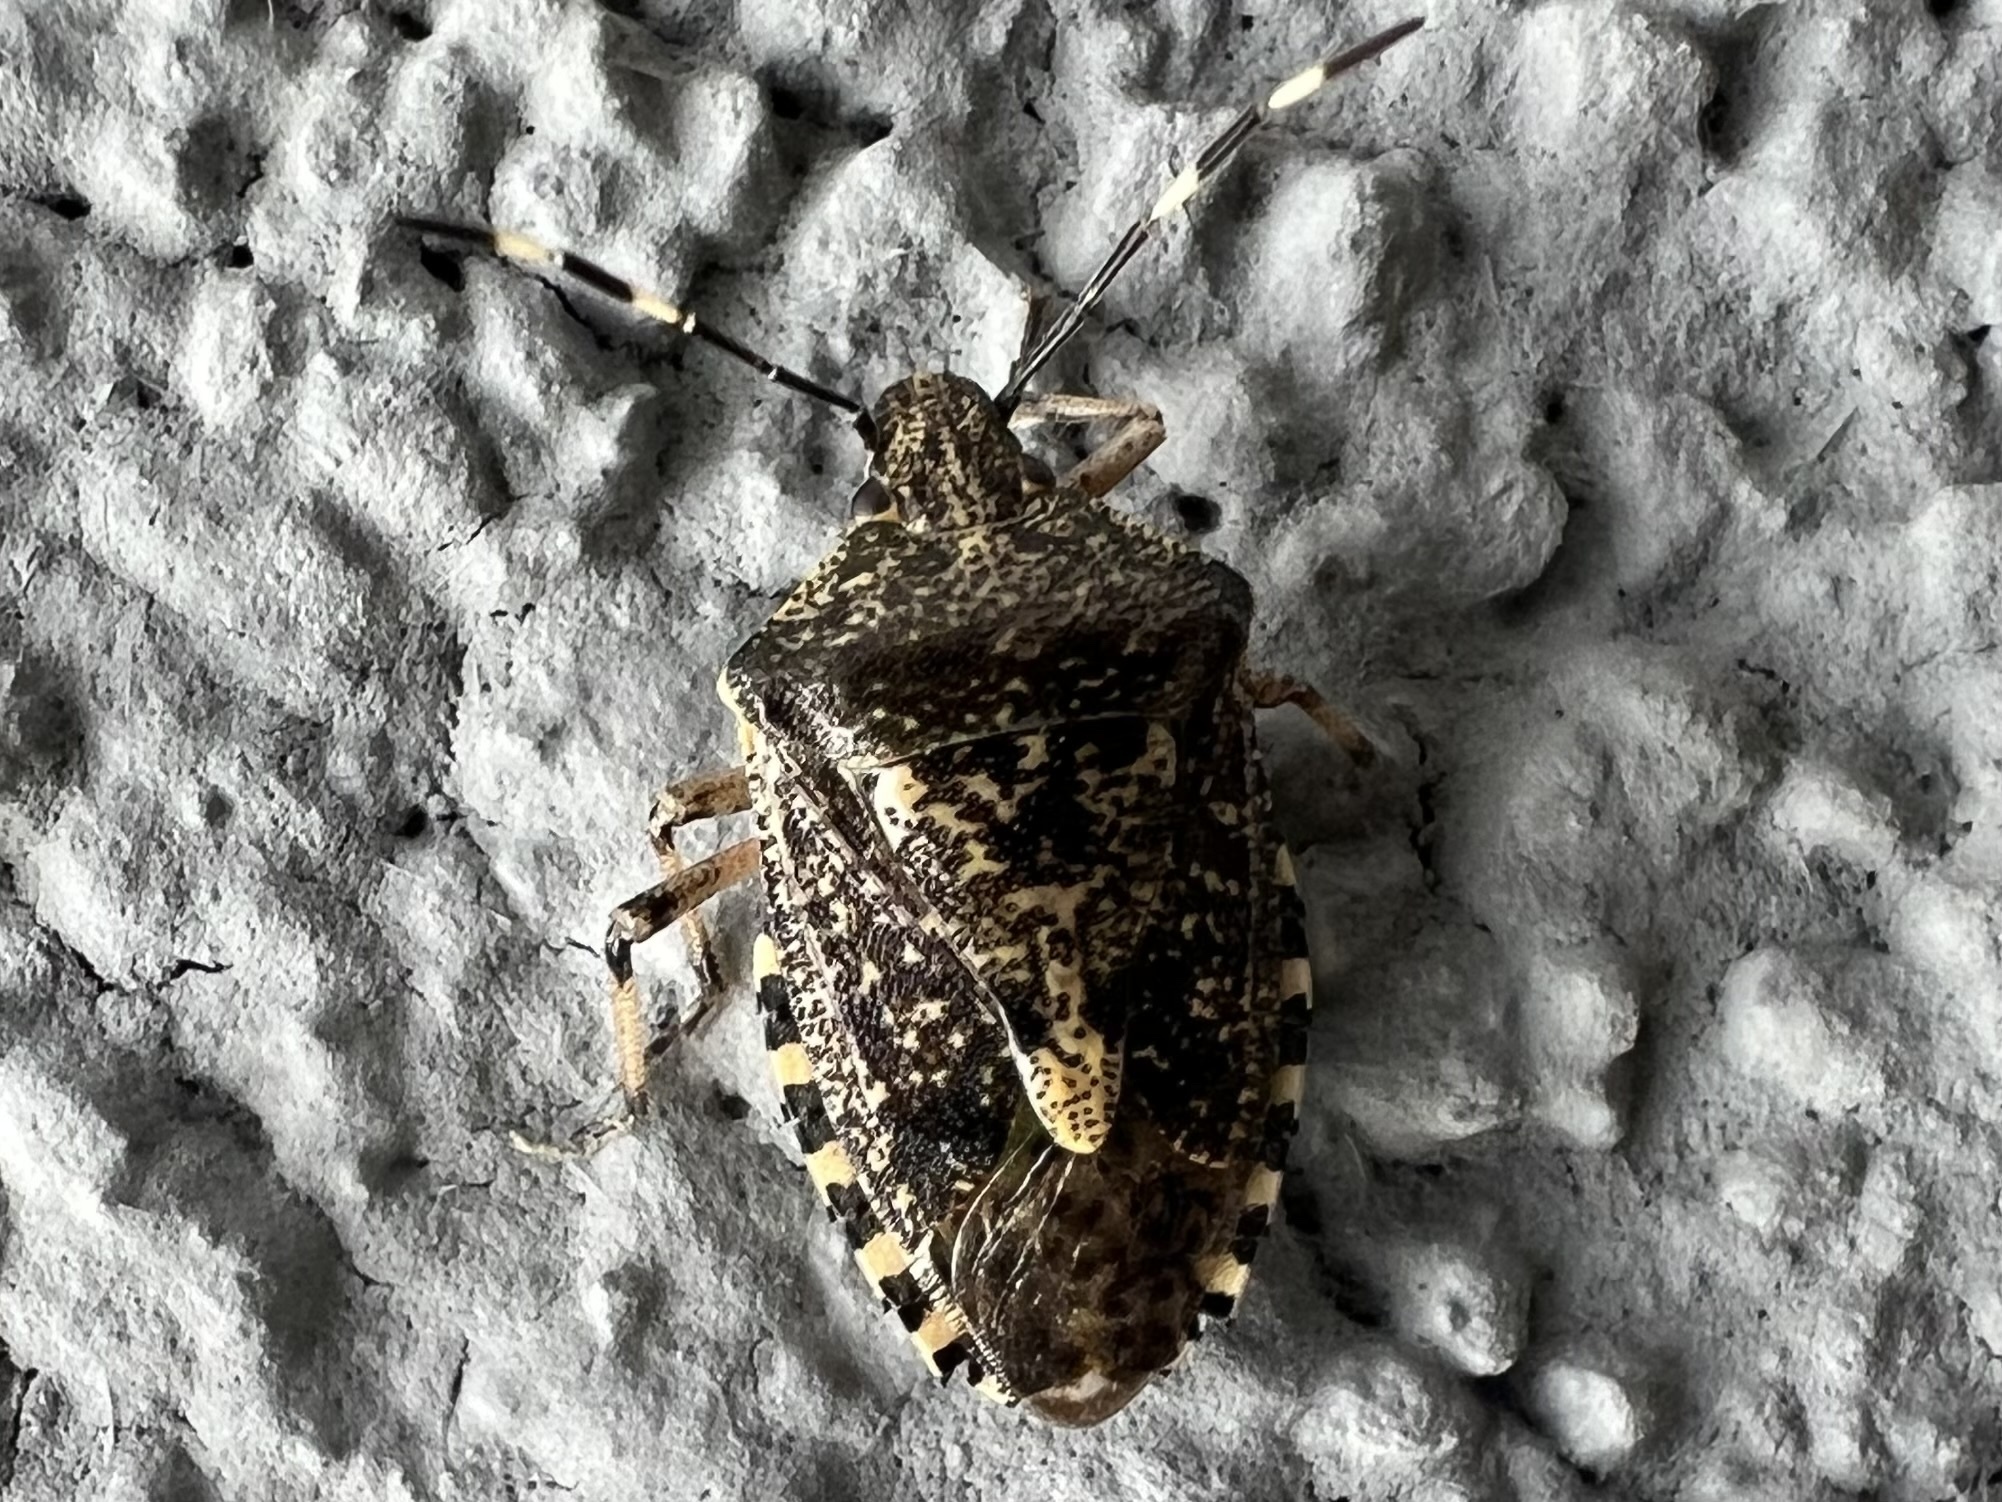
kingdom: Animalia
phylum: Arthropoda
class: Insecta
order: Hemiptera
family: Pentatomidae
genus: Rhaphigaster
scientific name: Rhaphigaster nebulosa
